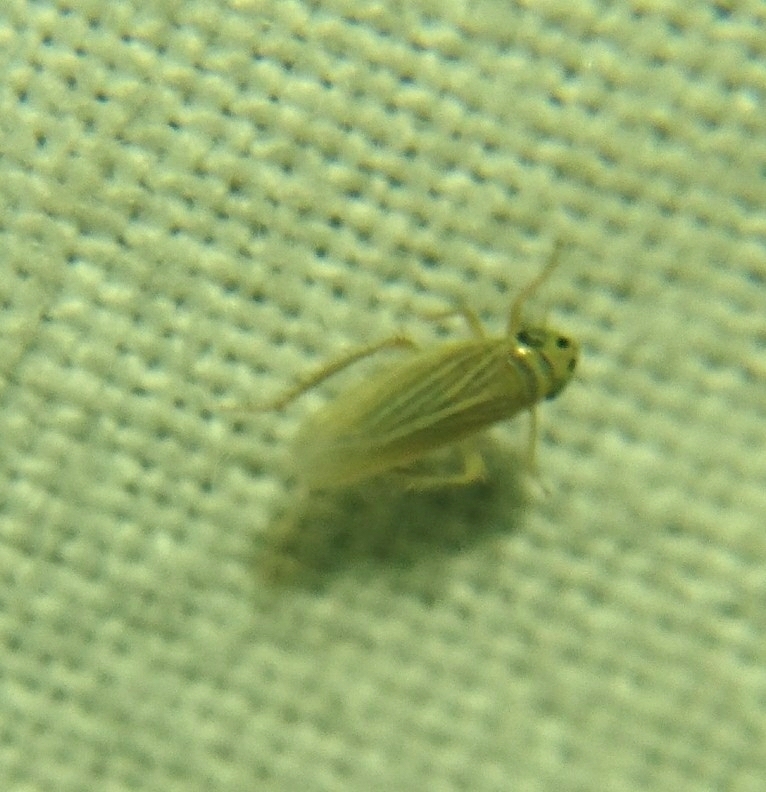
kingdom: Animalia
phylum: Arthropoda
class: Insecta
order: Hemiptera
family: Cicadellidae
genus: Graminella
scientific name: Graminella villicus
